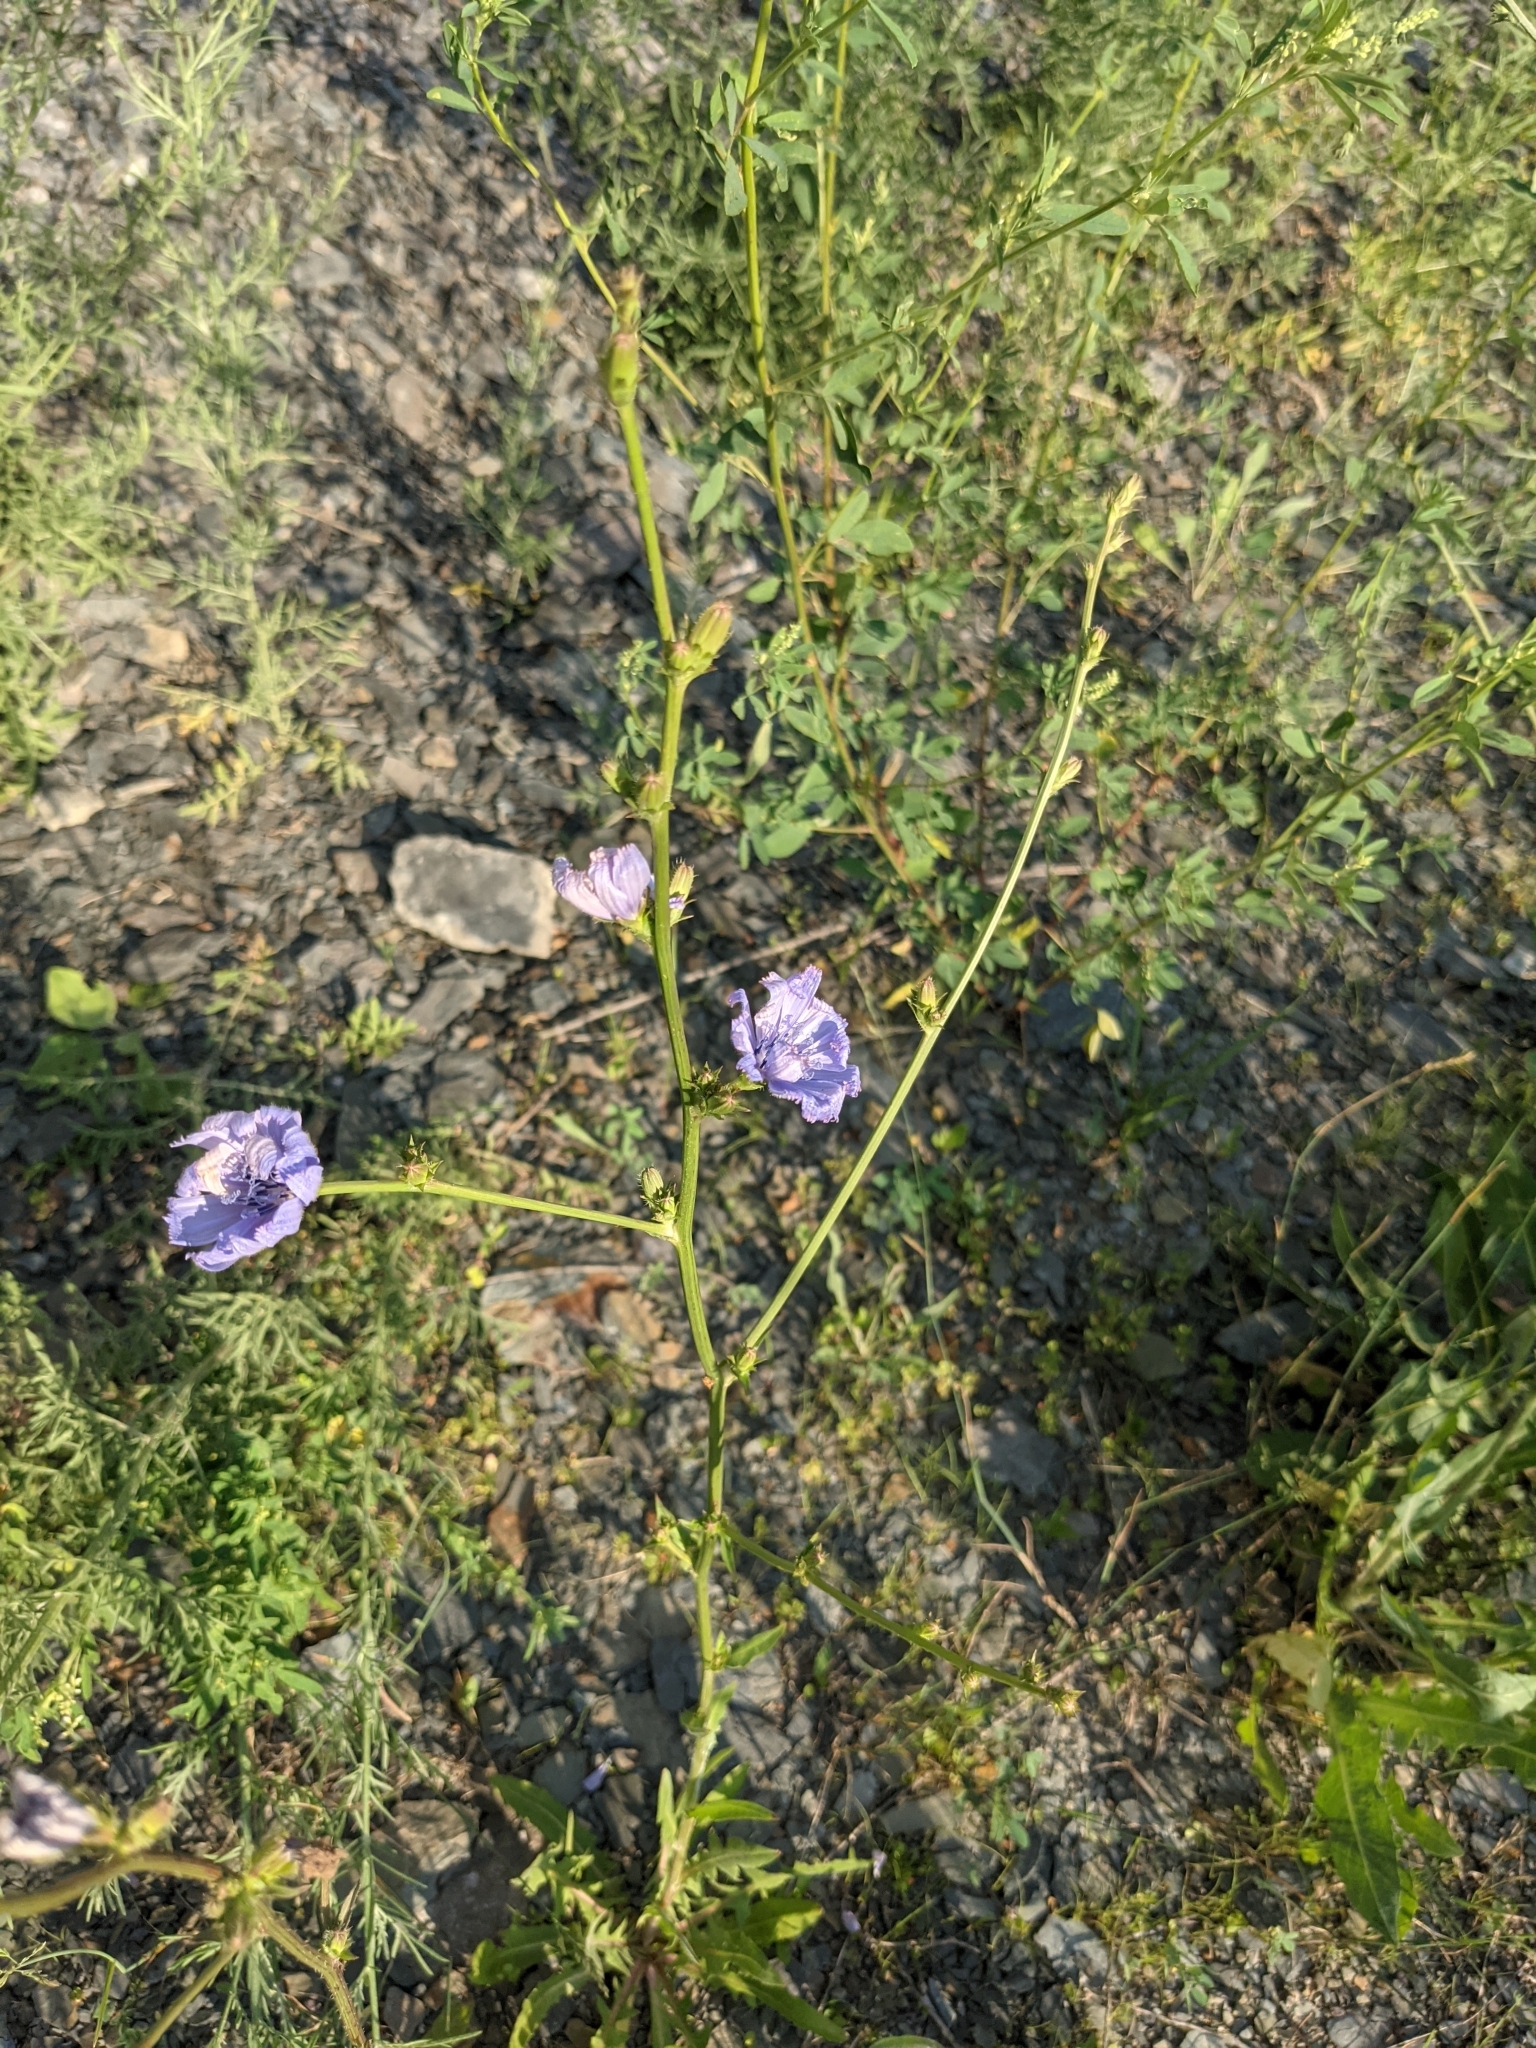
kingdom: Plantae
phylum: Tracheophyta
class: Magnoliopsida
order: Asterales
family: Asteraceae
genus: Cichorium
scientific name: Cichorium intybus
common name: Chicory
